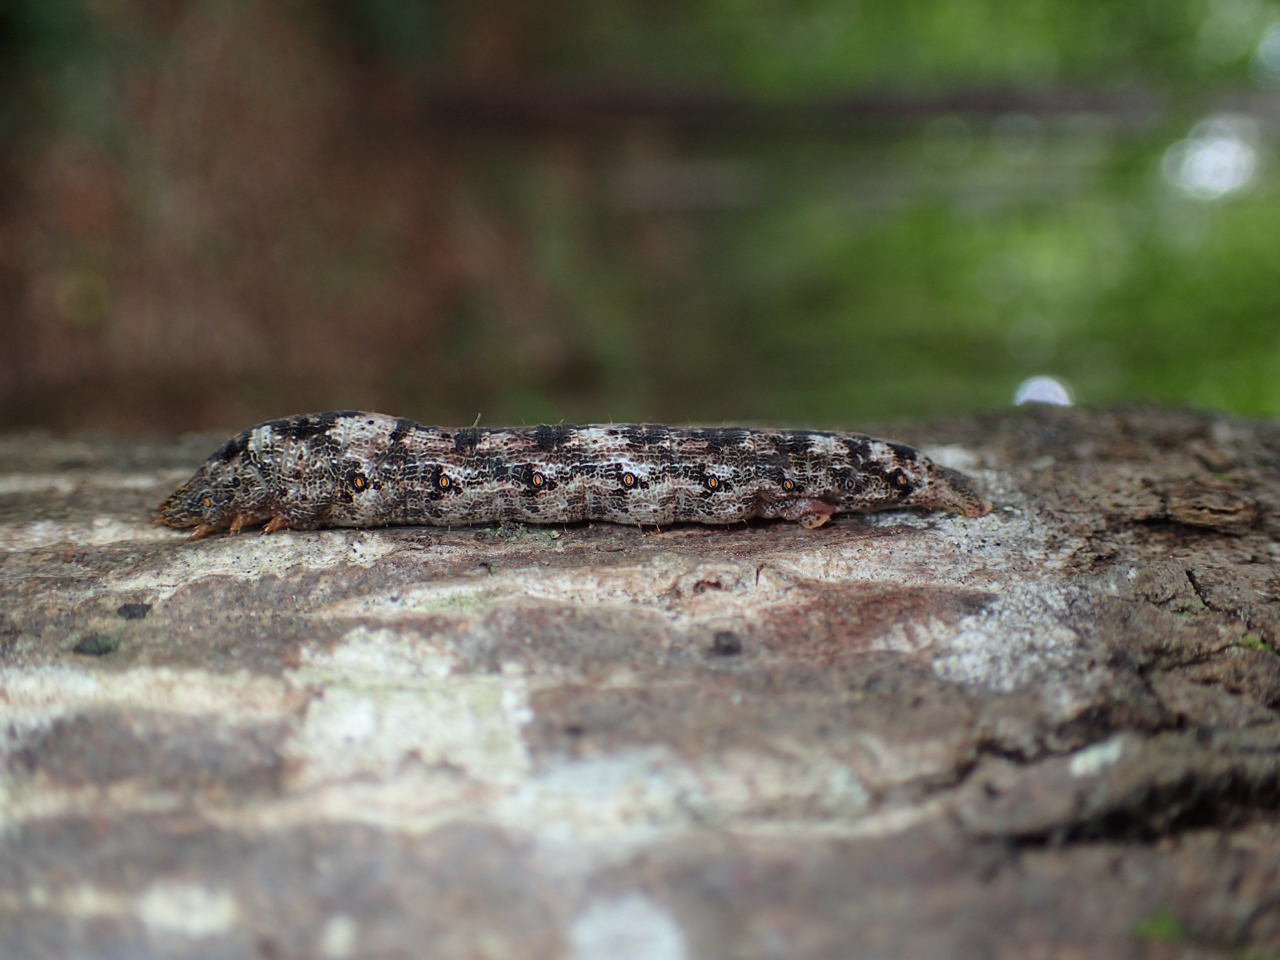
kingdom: Animalia
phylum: Arthropoda
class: Insecta
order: Lepidoptera
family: Geometridae
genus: Epimecis
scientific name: Epimecis hortaria
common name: Tulip-tree beauty
